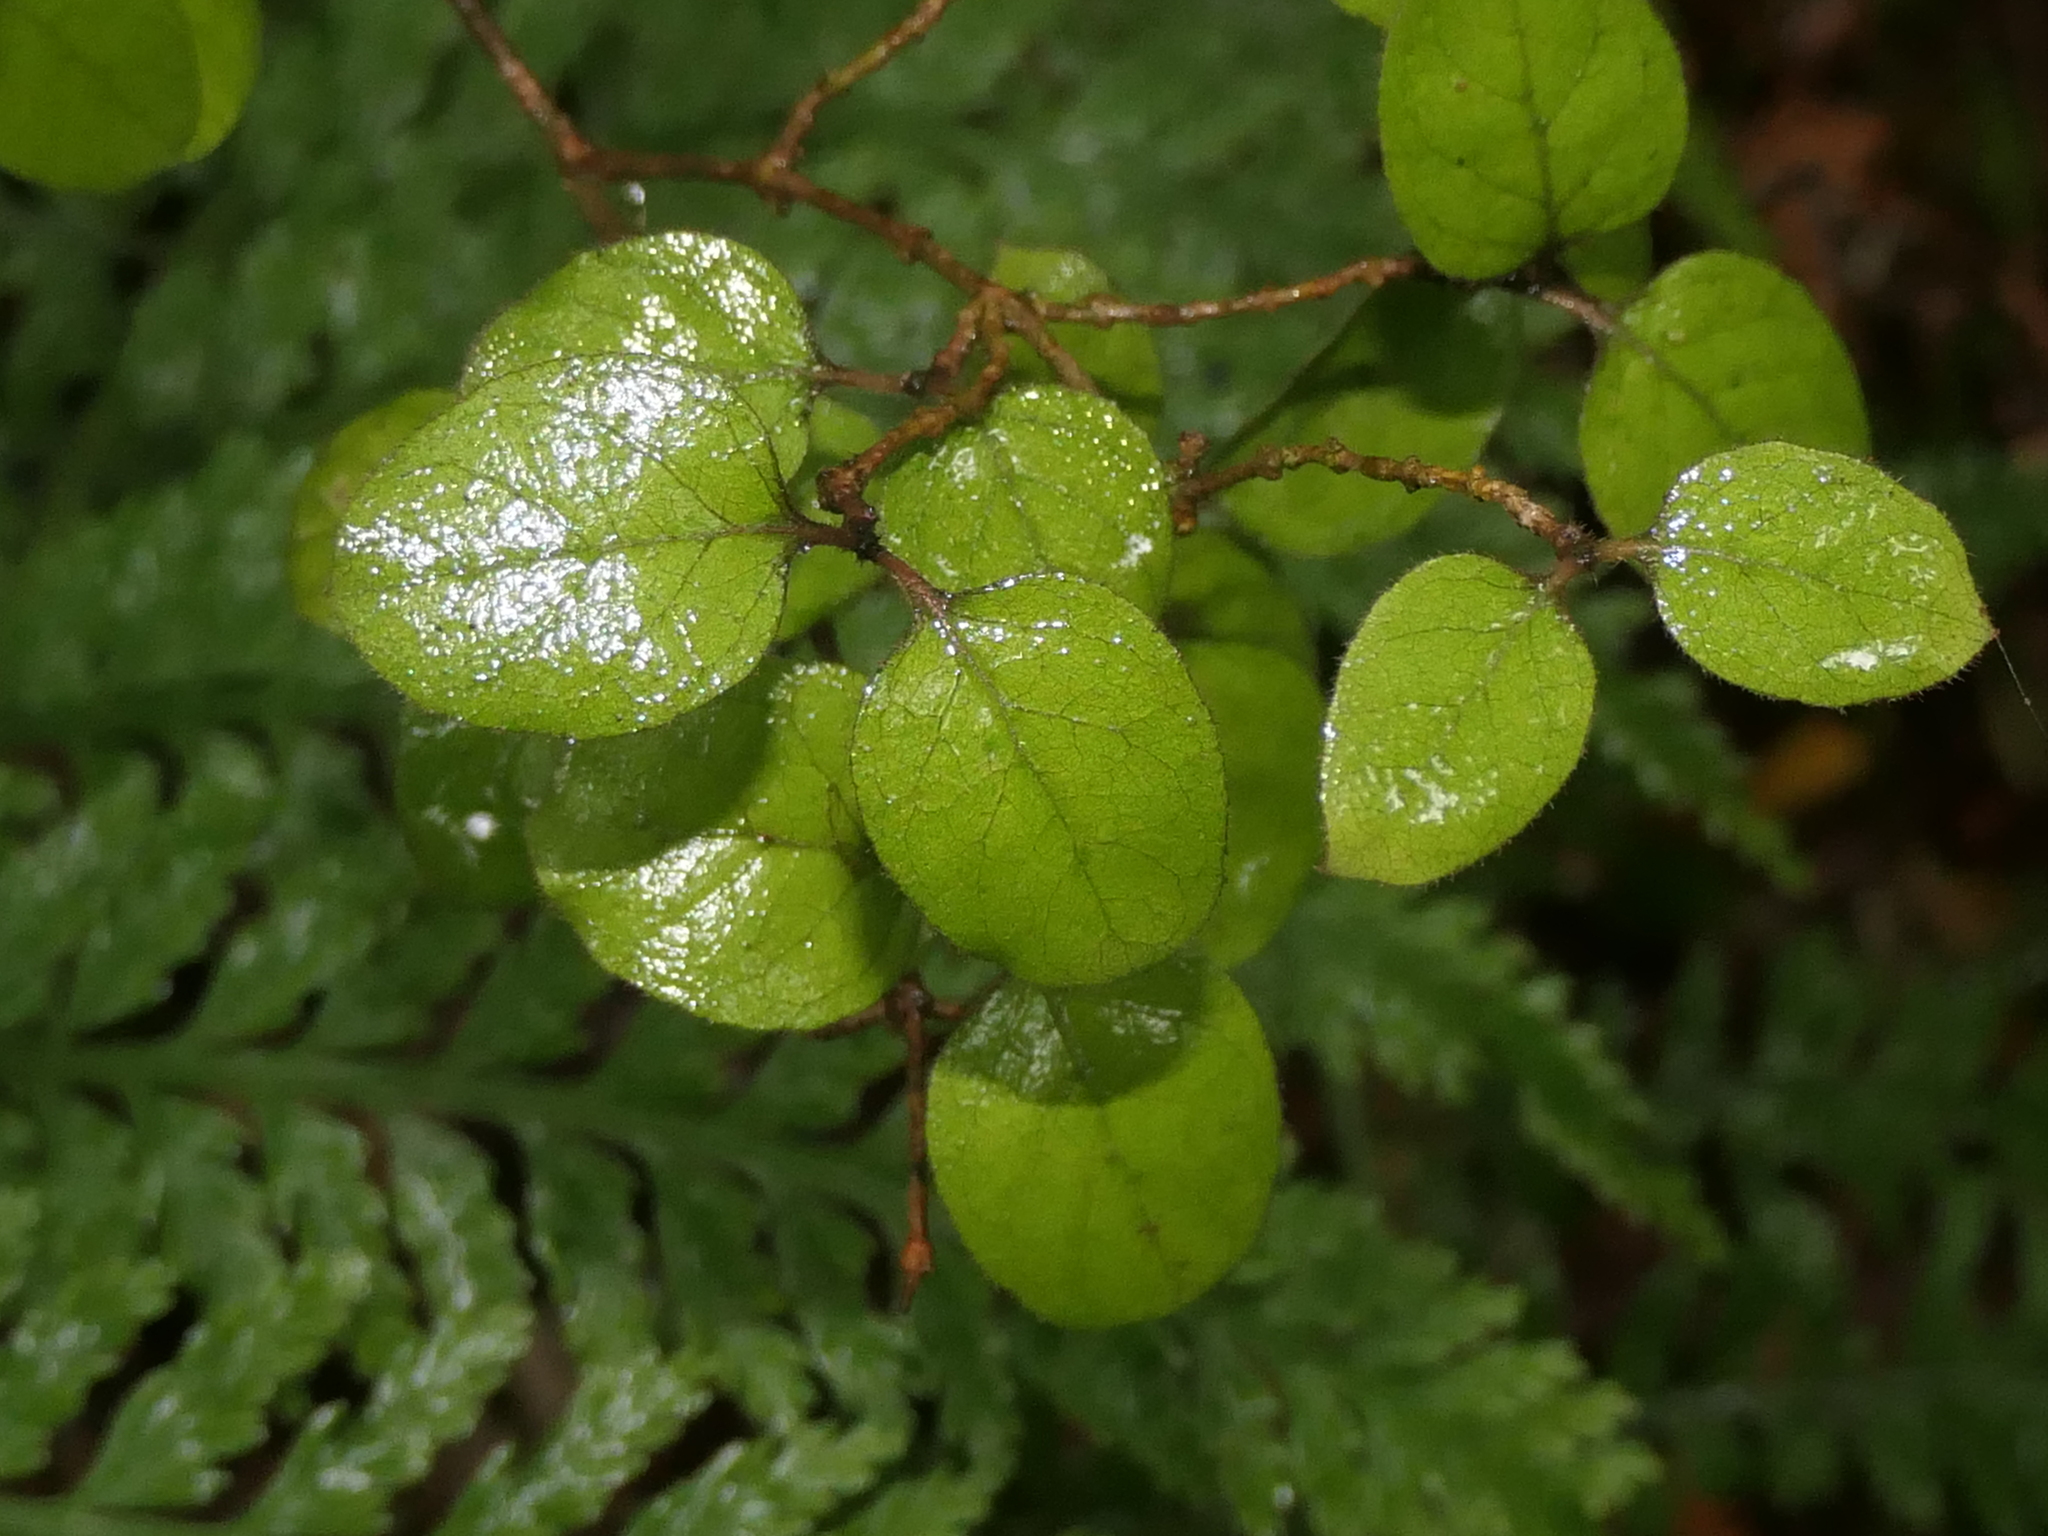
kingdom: Plantae
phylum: Tracheophyta
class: Magnoliopsida
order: Gentianales
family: Rubiaceae
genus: Coprosma
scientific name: Coprosma rotundifolia
